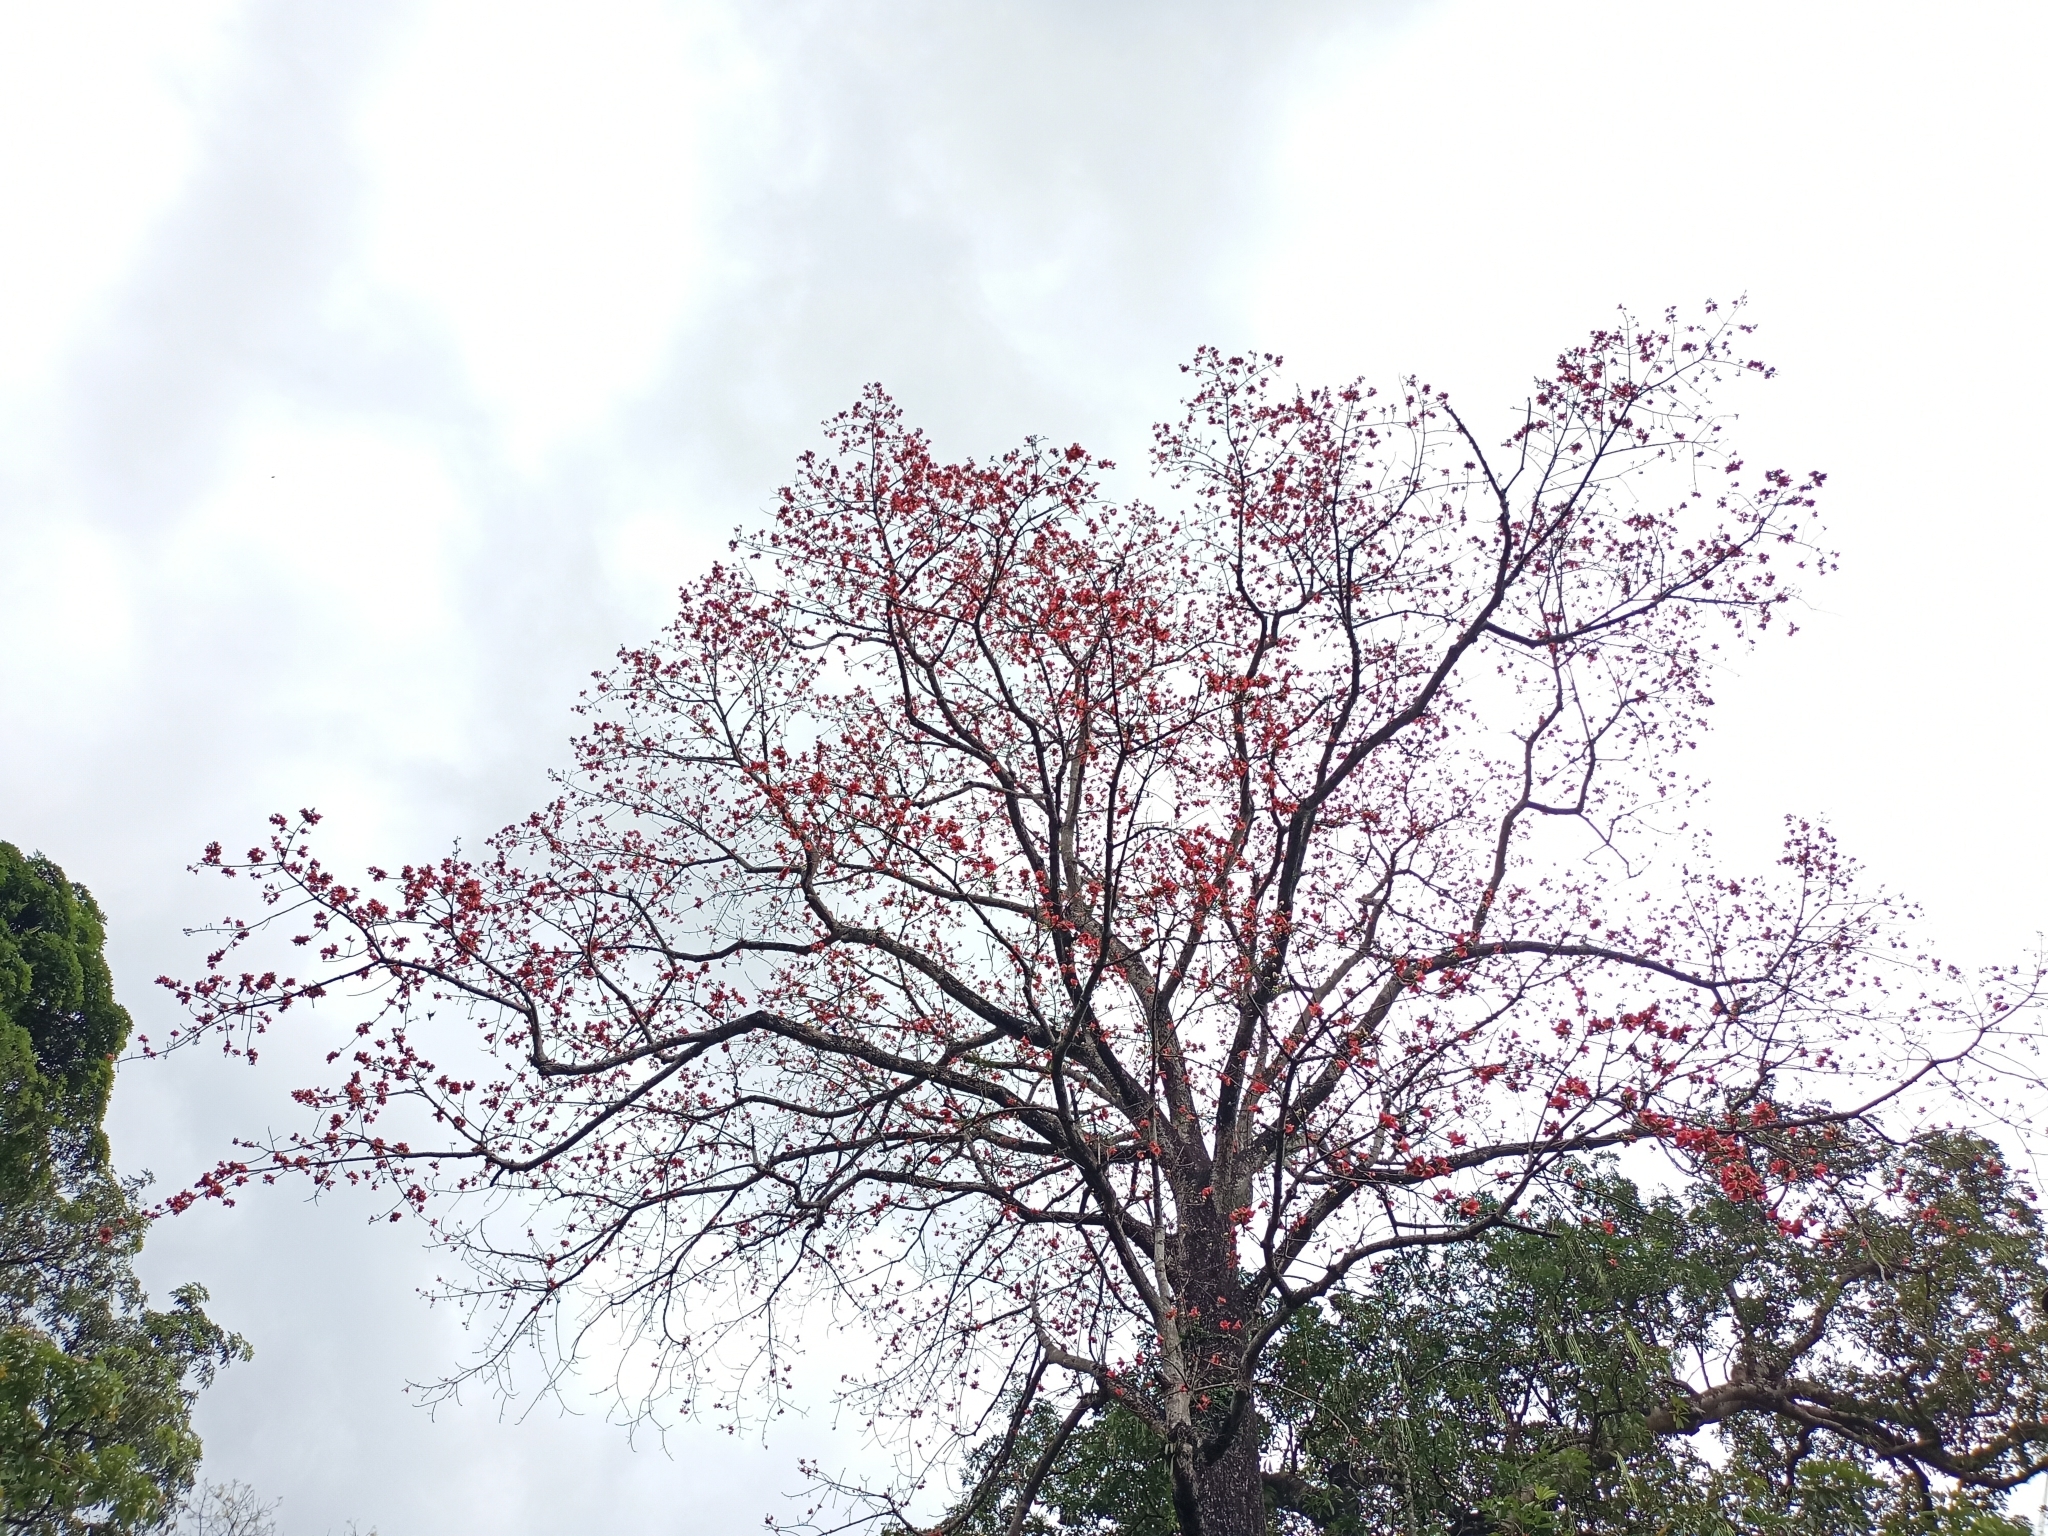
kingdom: Plantae
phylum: Tracheophyta
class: Magnoliopsida
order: Malvales
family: Malvaceae
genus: Bombax
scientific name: Bombax ceiba
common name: Northern-cottonwood
